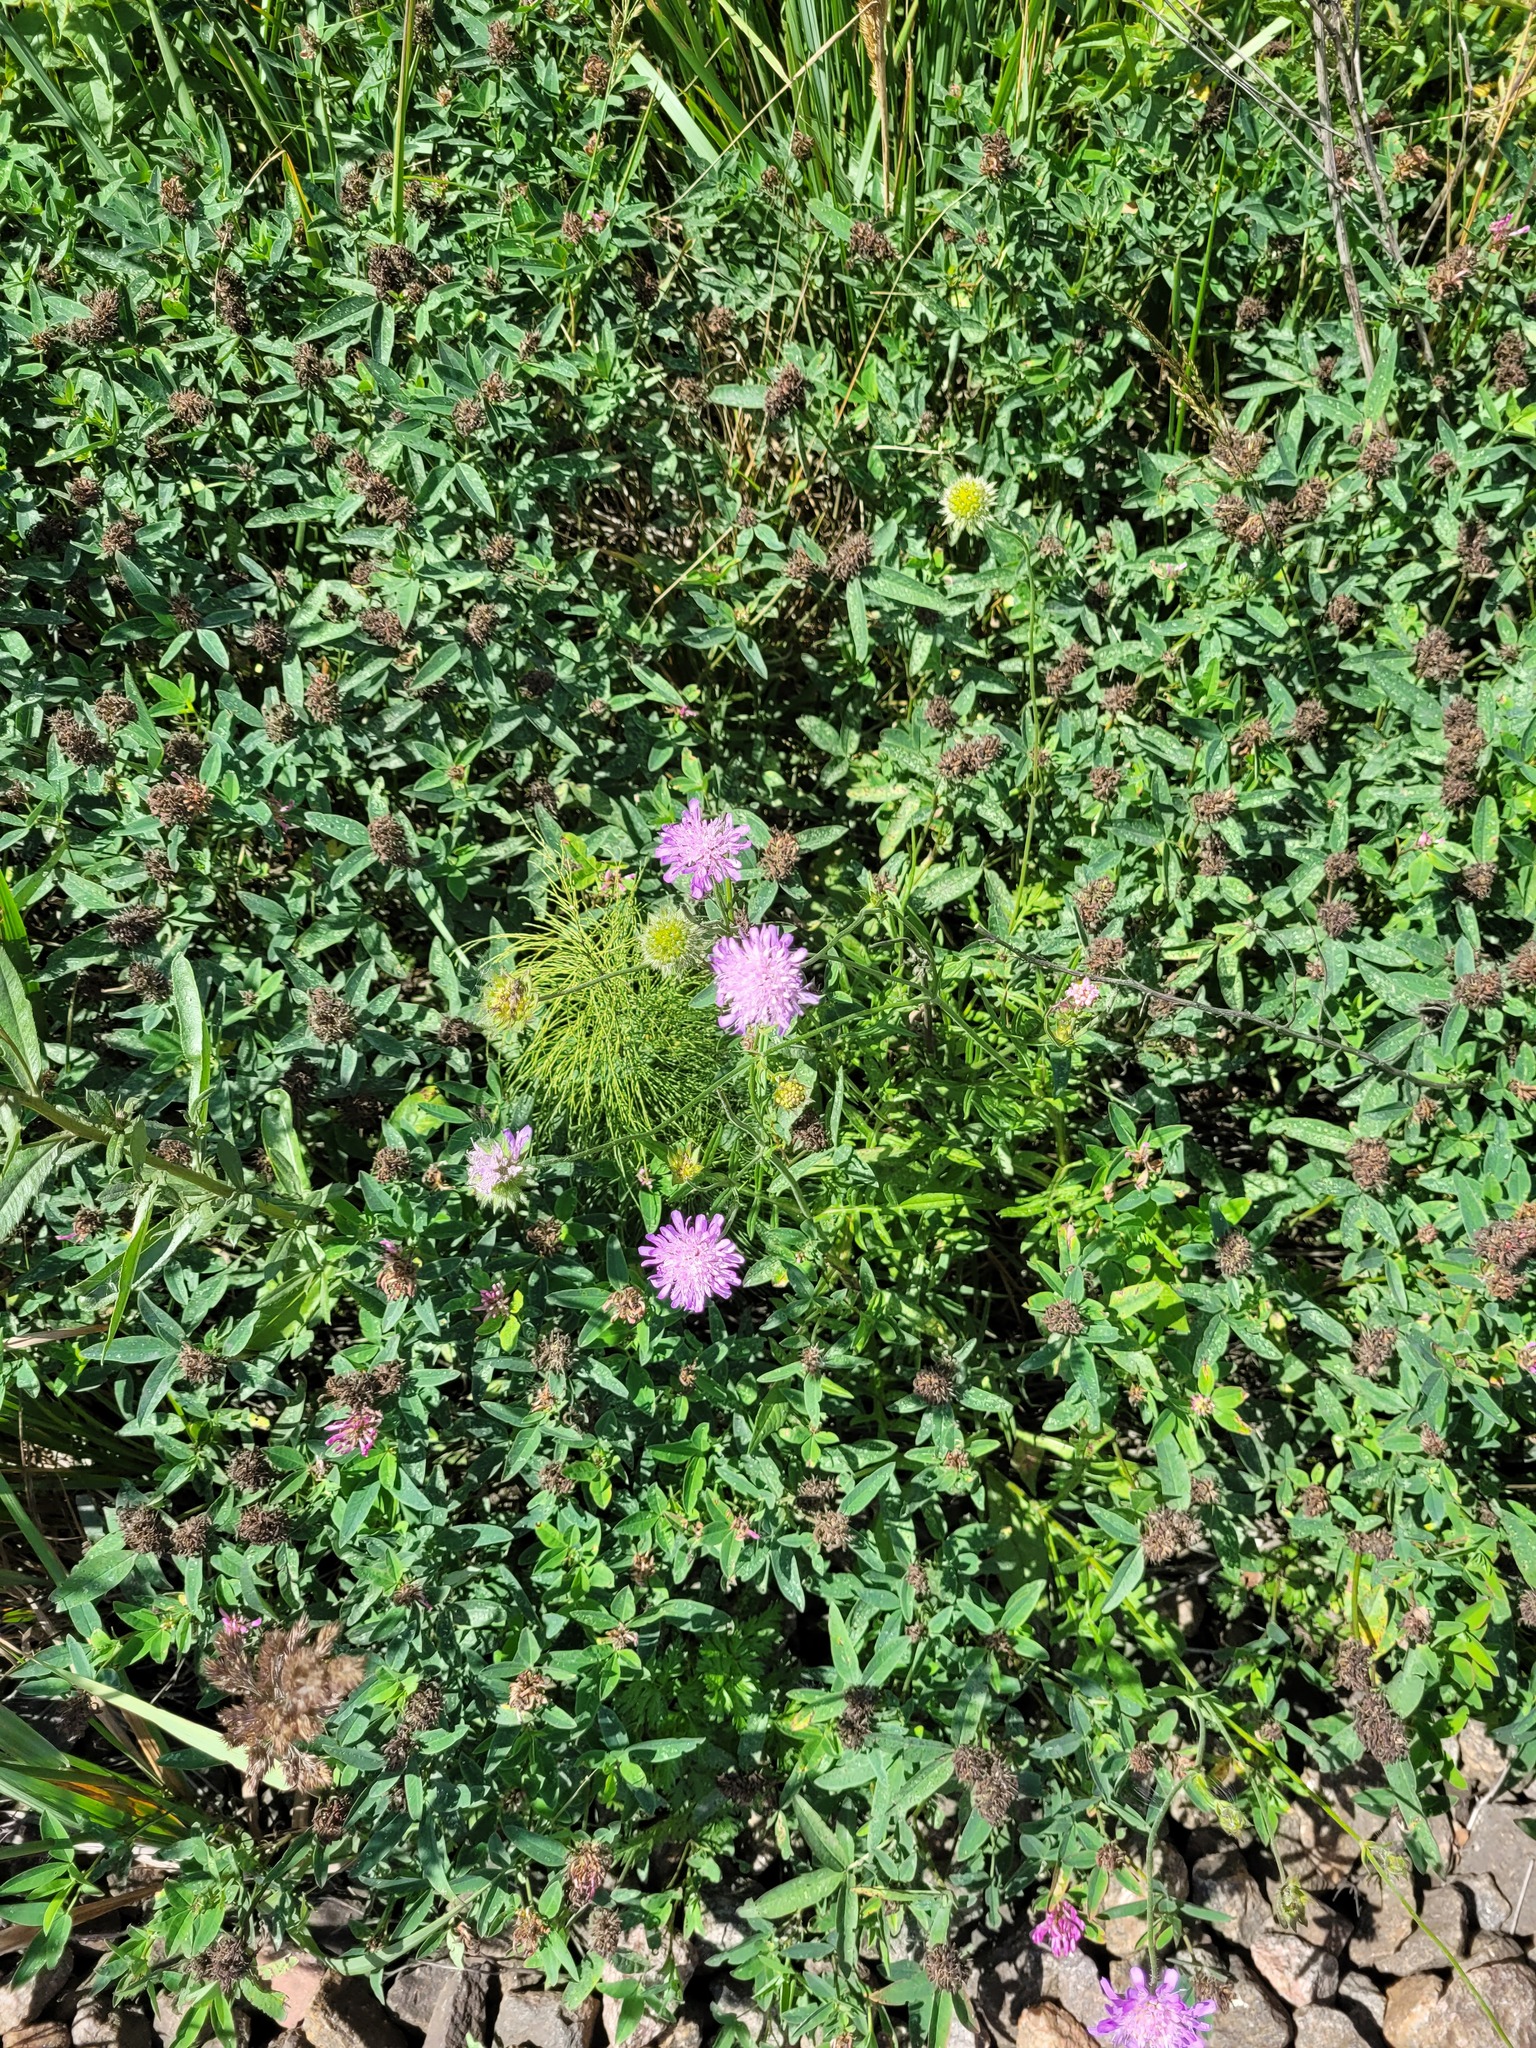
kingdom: Plantae
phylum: Tracheophyta
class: Magnoliopsida
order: Dipsacales
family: Caprifoliaceae
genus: Knautia
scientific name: Knautia arvensis
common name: Field scabiosa
